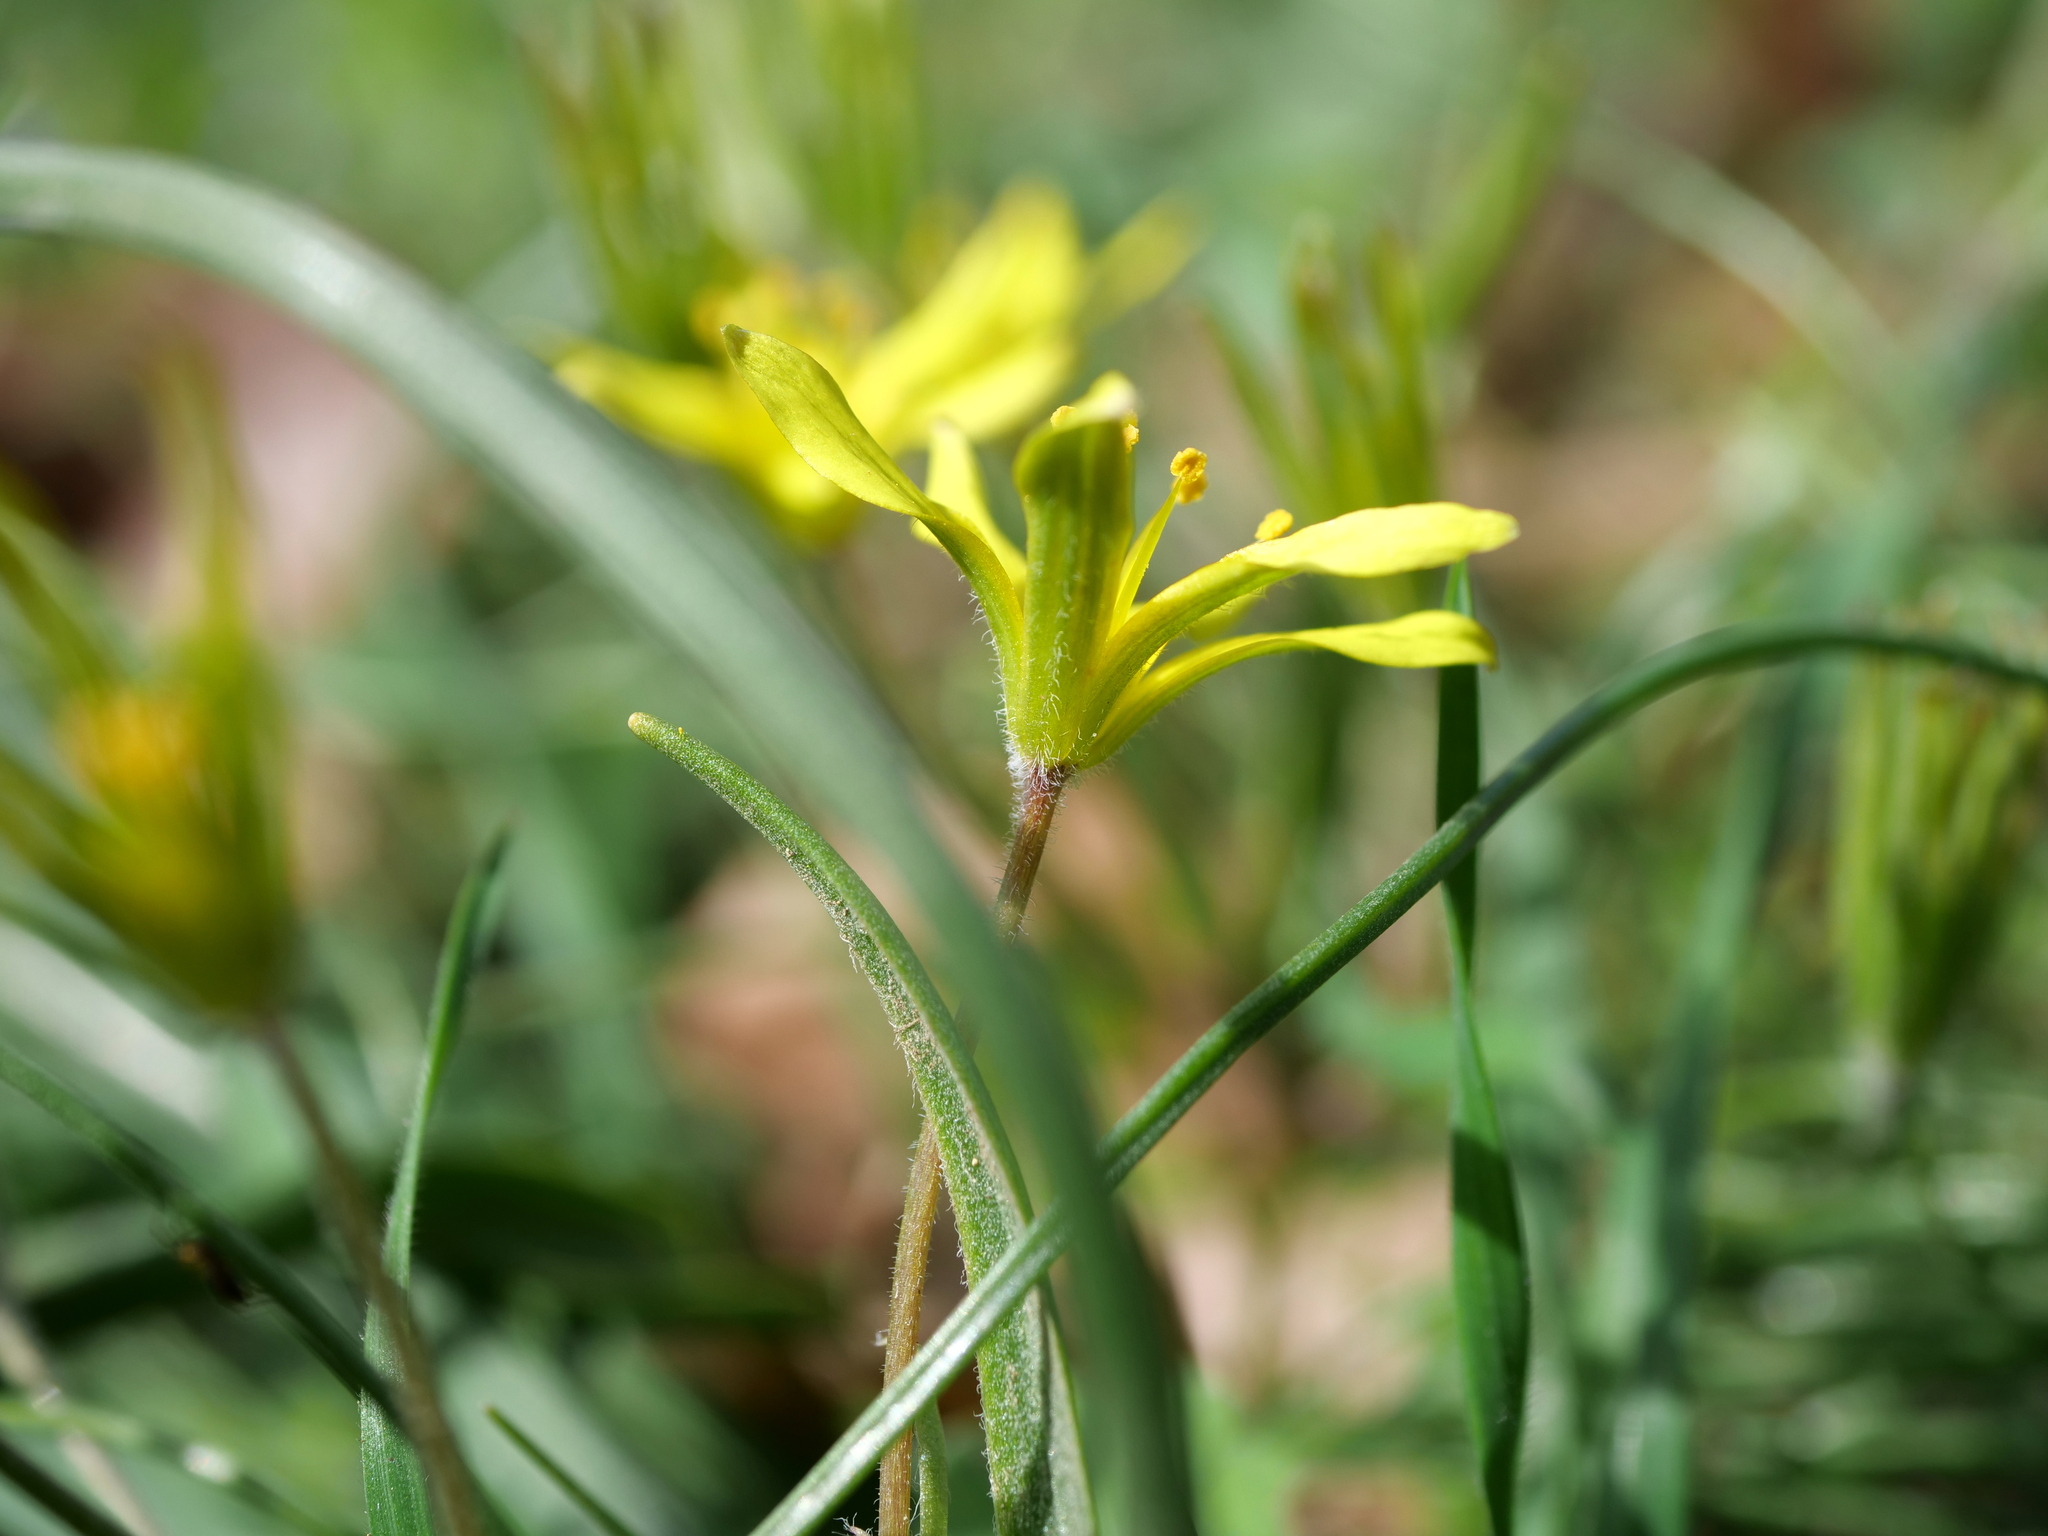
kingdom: Plantae
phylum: Tracheophyta
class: Liliopsida
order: Liliales
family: Liliaceae
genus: Gagea
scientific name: Gagea villosa
